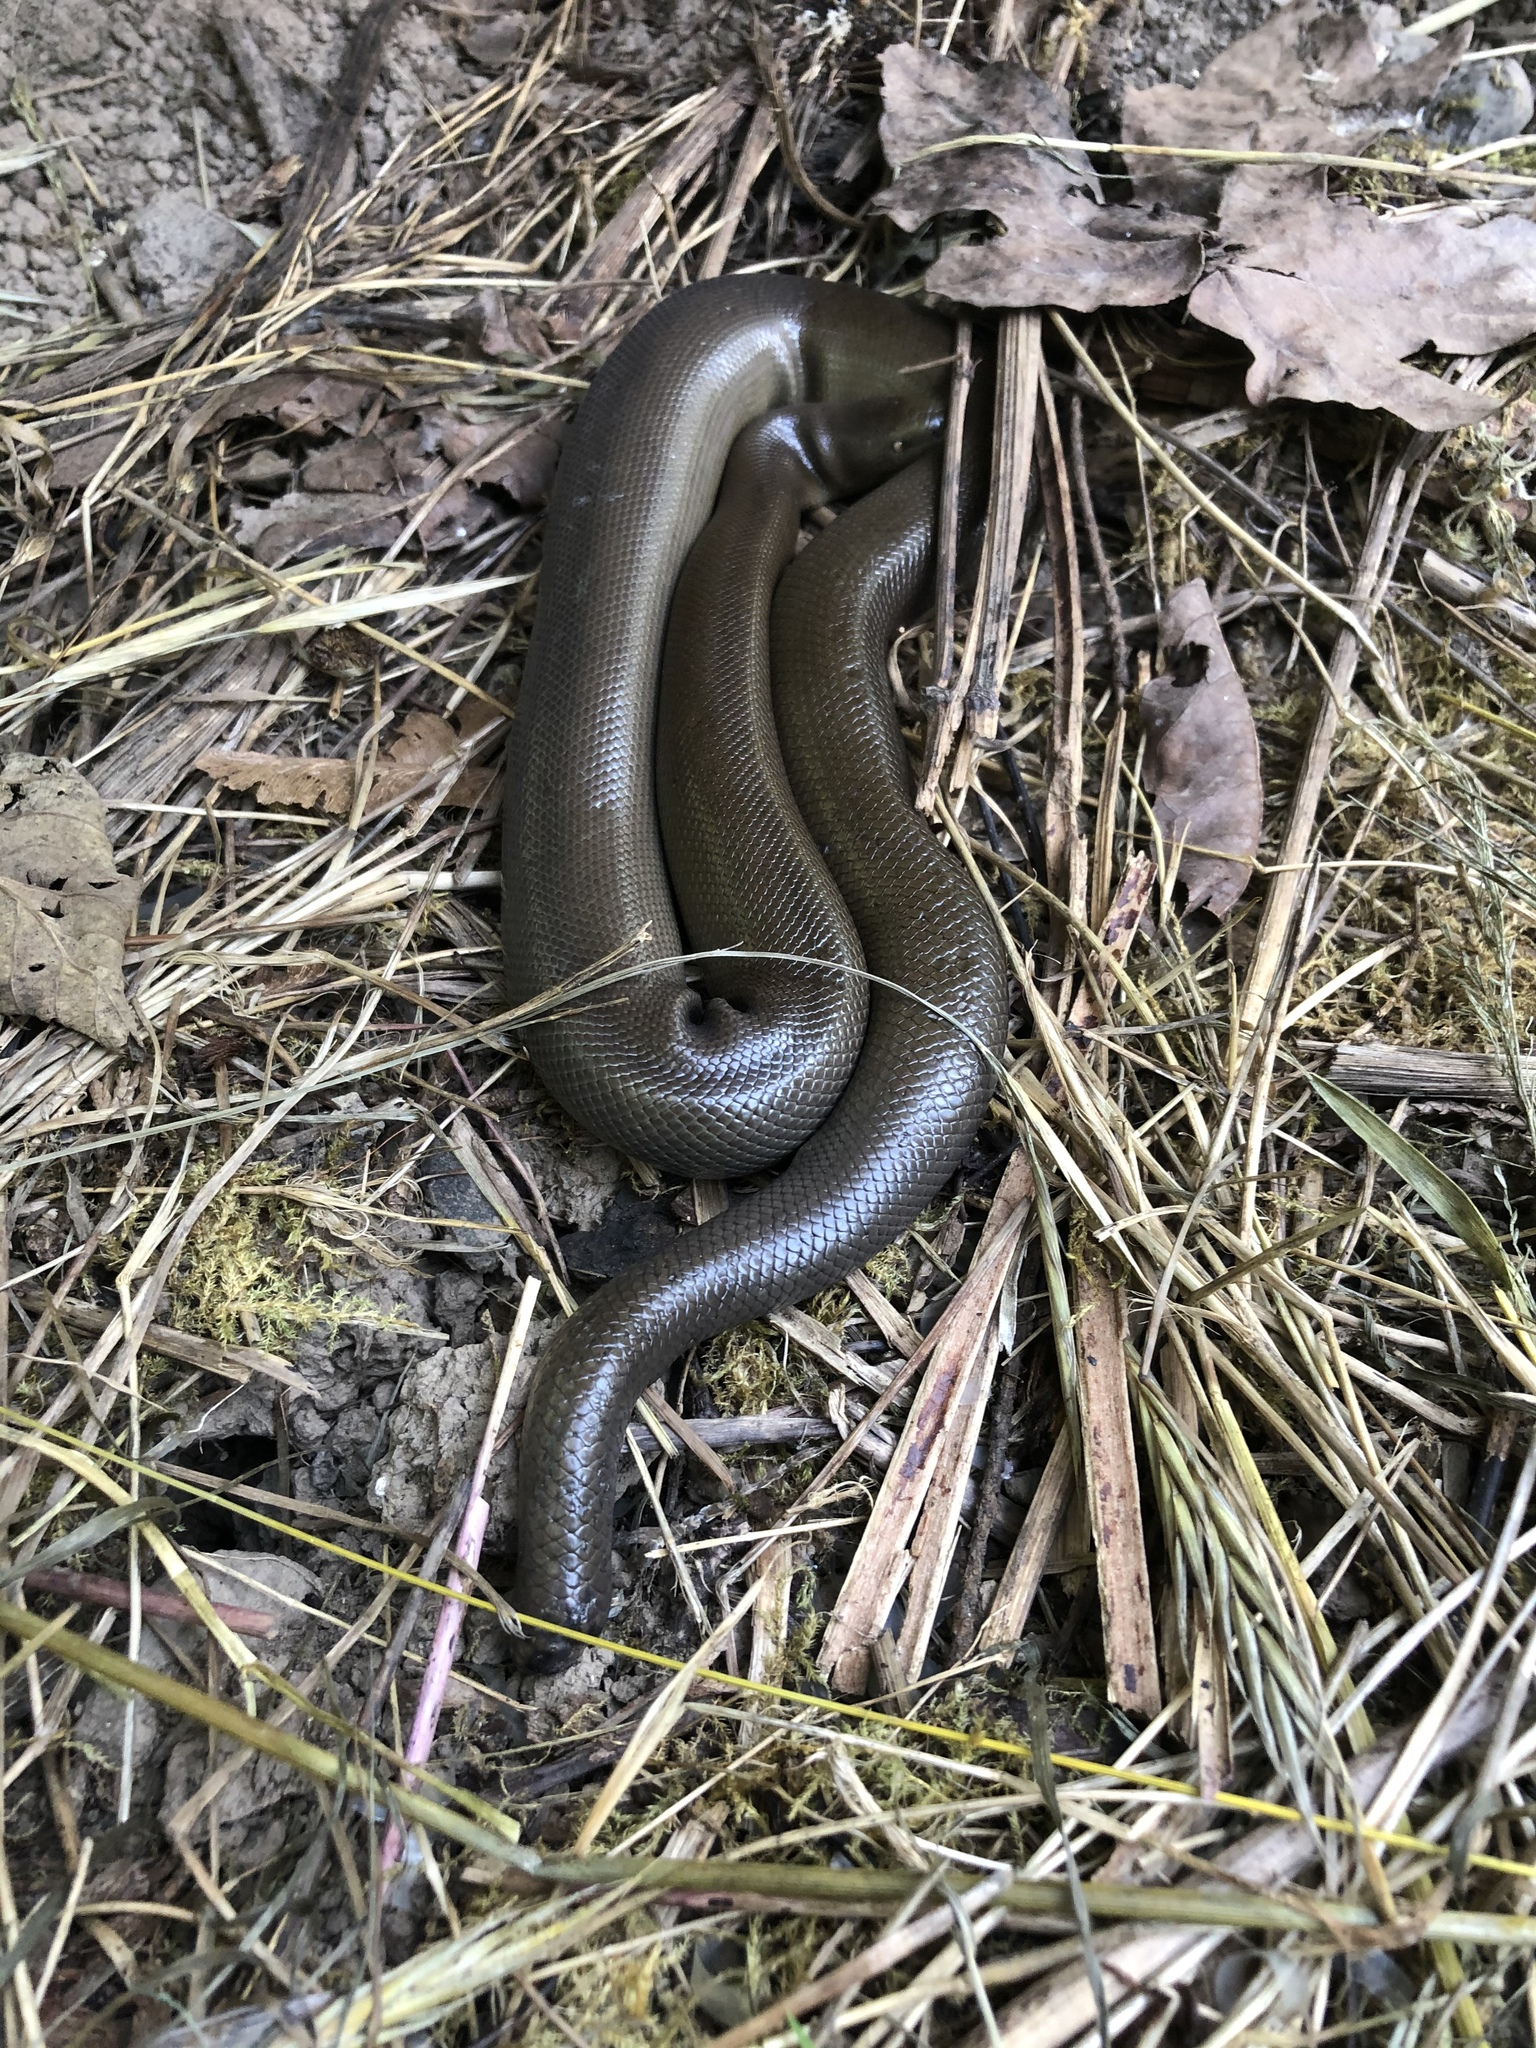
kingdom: Animalia
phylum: Chordata
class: Squamata
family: Boidae
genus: Charina
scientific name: Charina bottae
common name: Northern rubber boa
